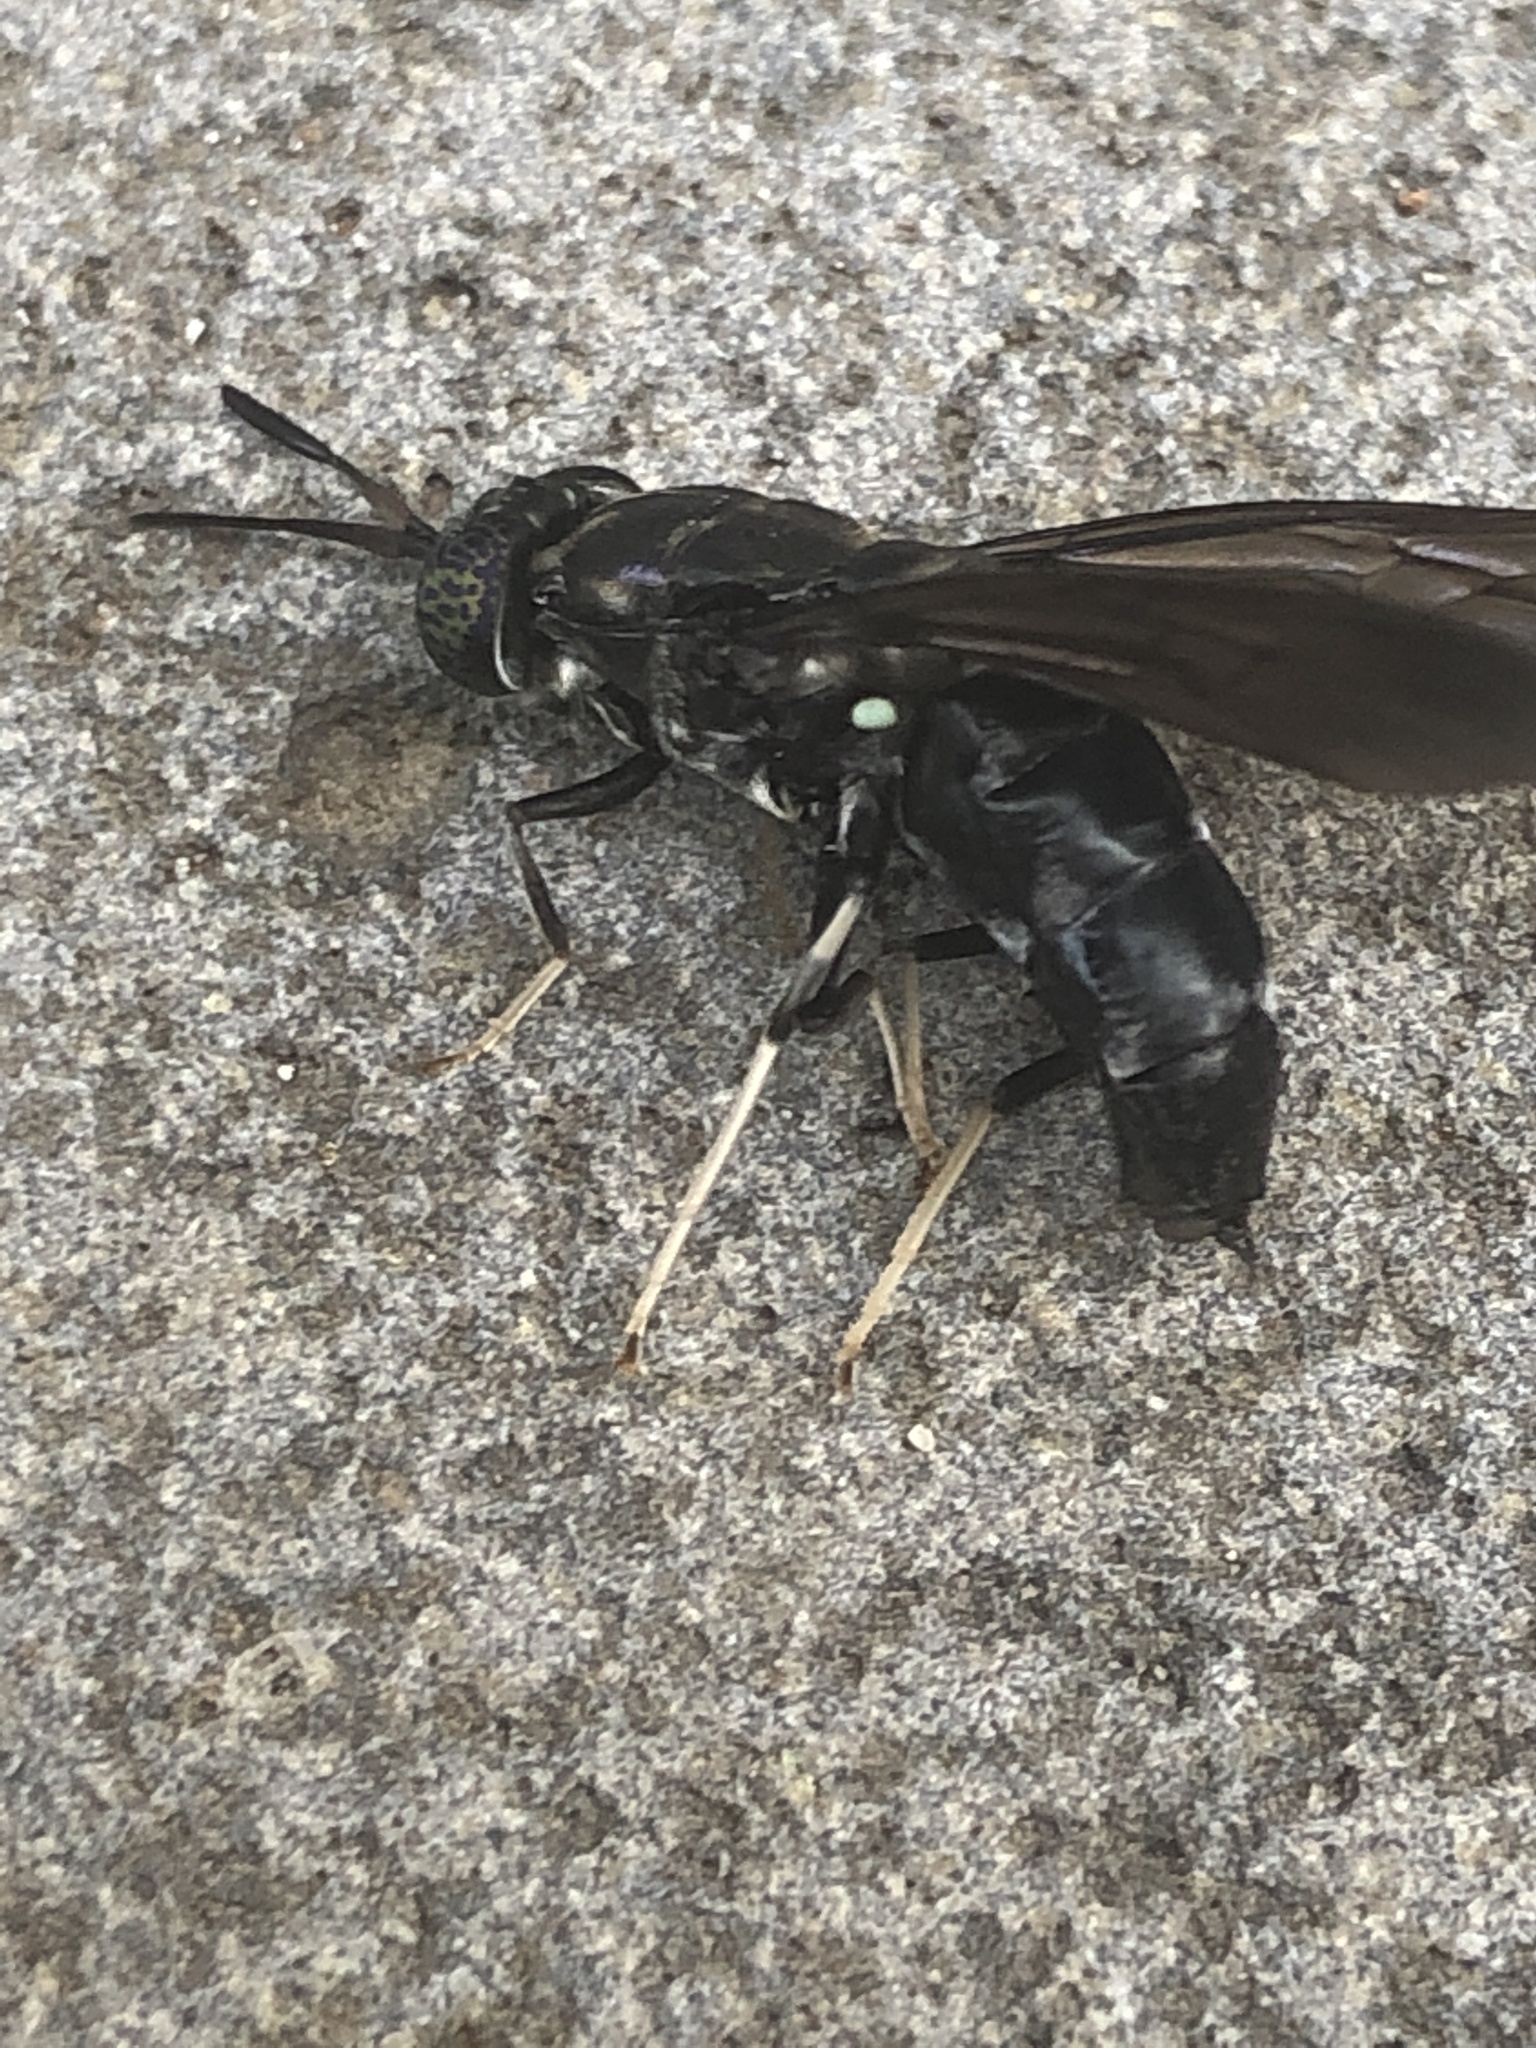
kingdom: Animalia
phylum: Arthropoda
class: Insecta
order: Diptera
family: Stratiomyidae
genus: Hermetia
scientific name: Hermetia illucens
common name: Black soldier fly
